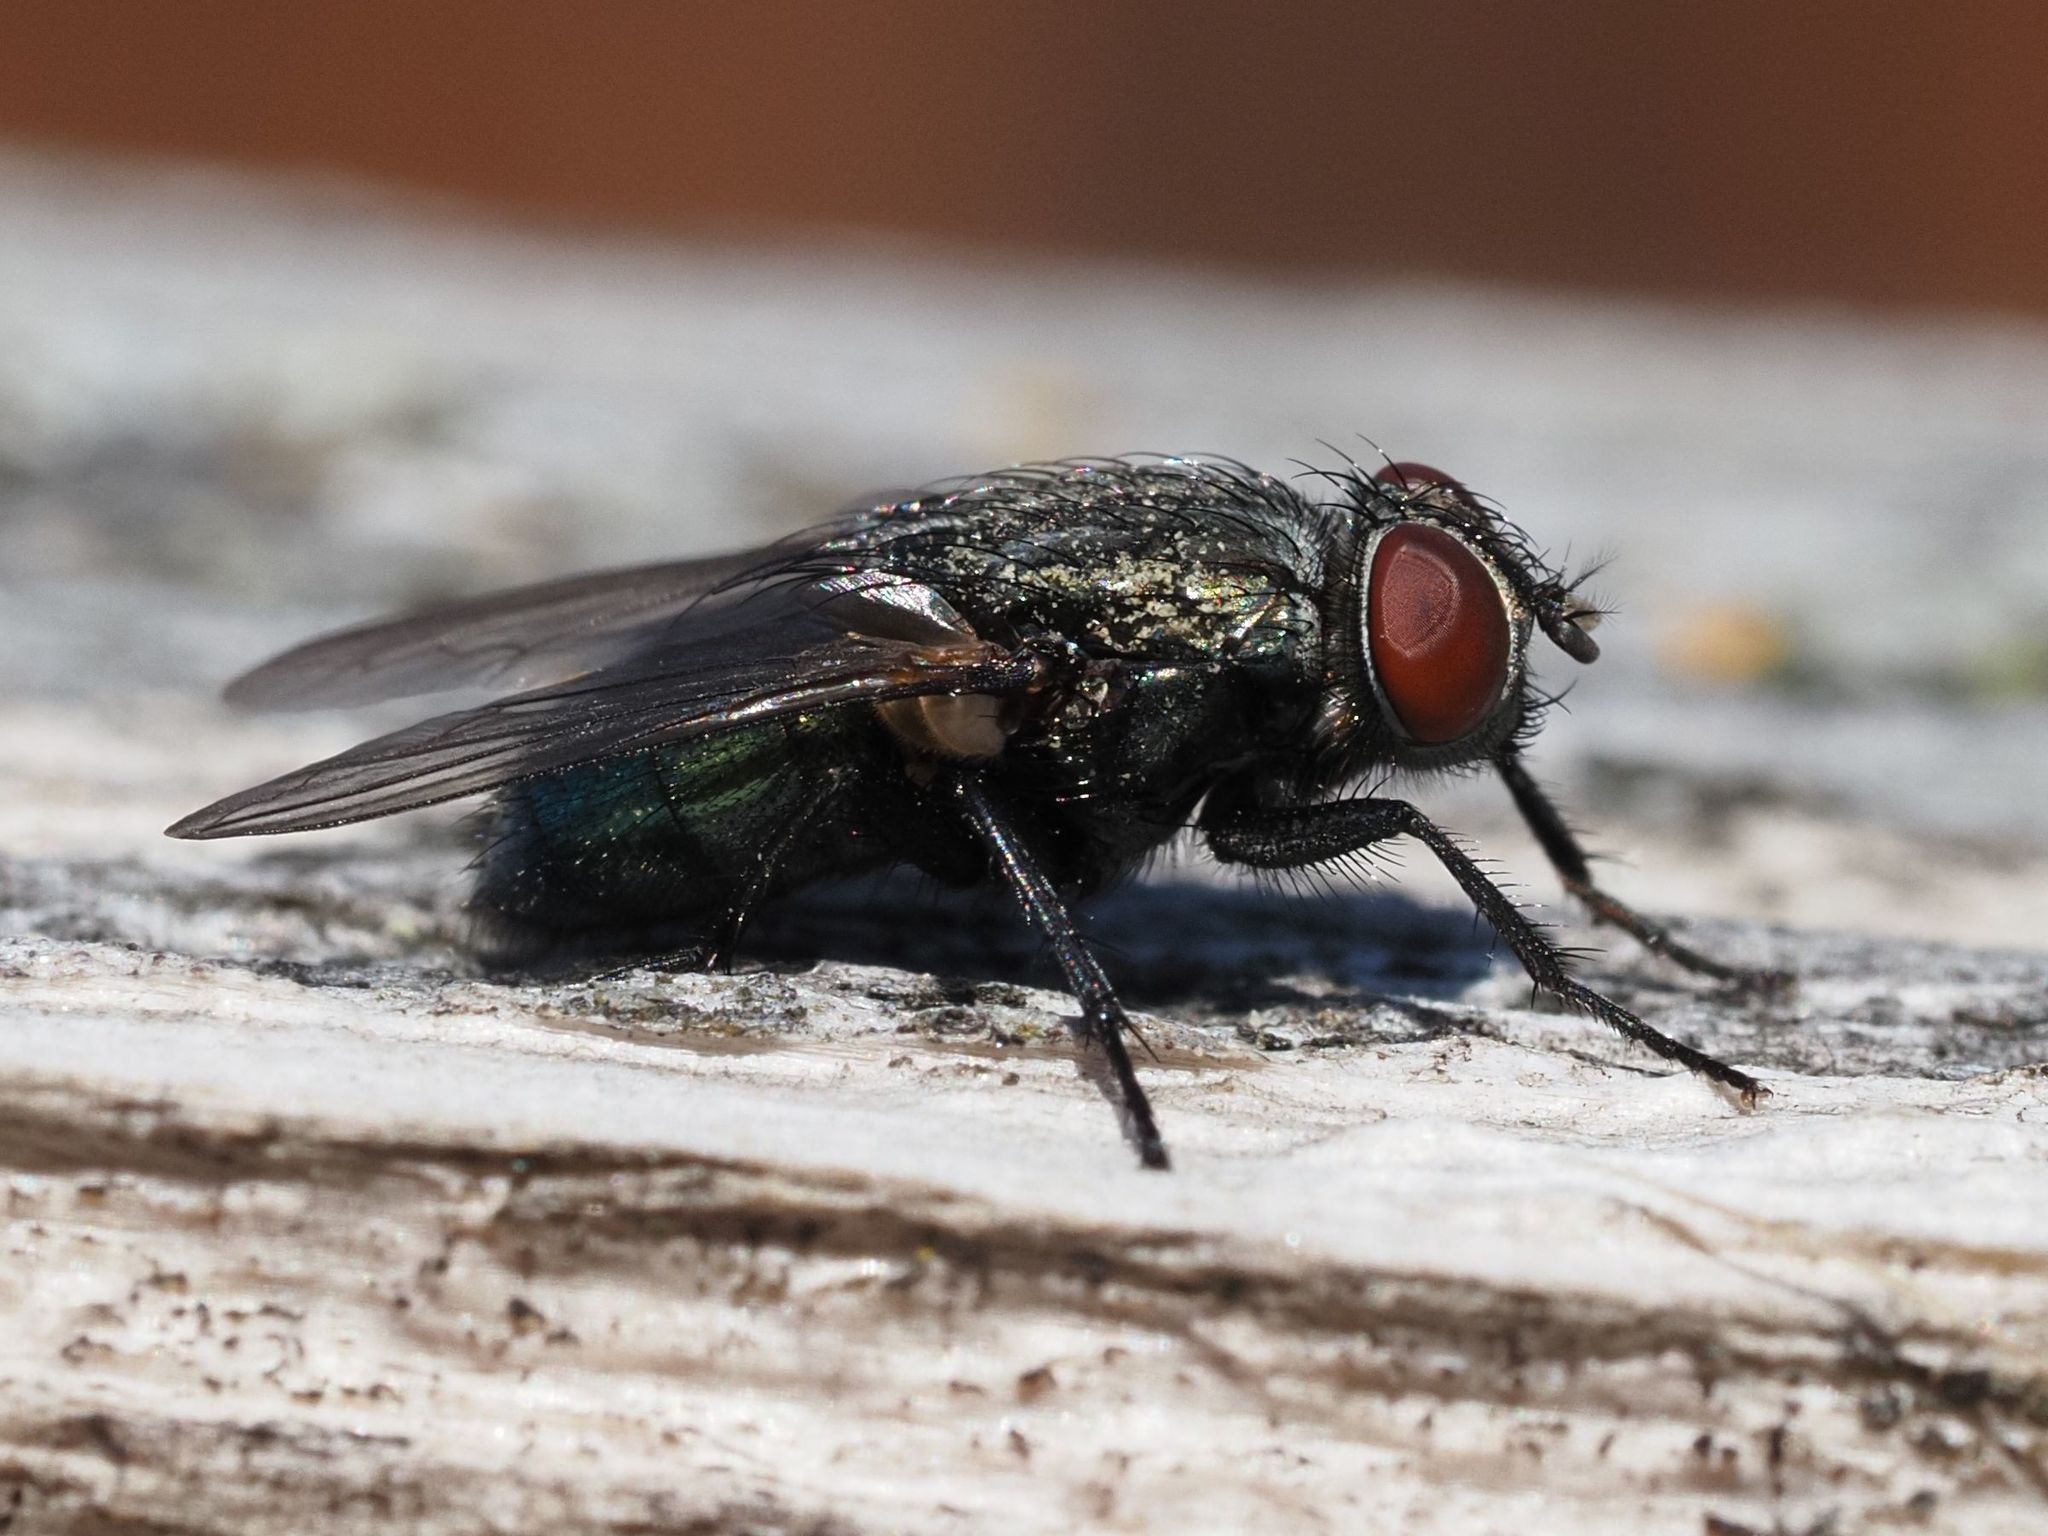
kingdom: Animalia
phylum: Arthropoda
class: Insecta
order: Diptera
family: Calliphoridae
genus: Protocalliphora
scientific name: Protocalliphora azurea
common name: Bird blowfly
